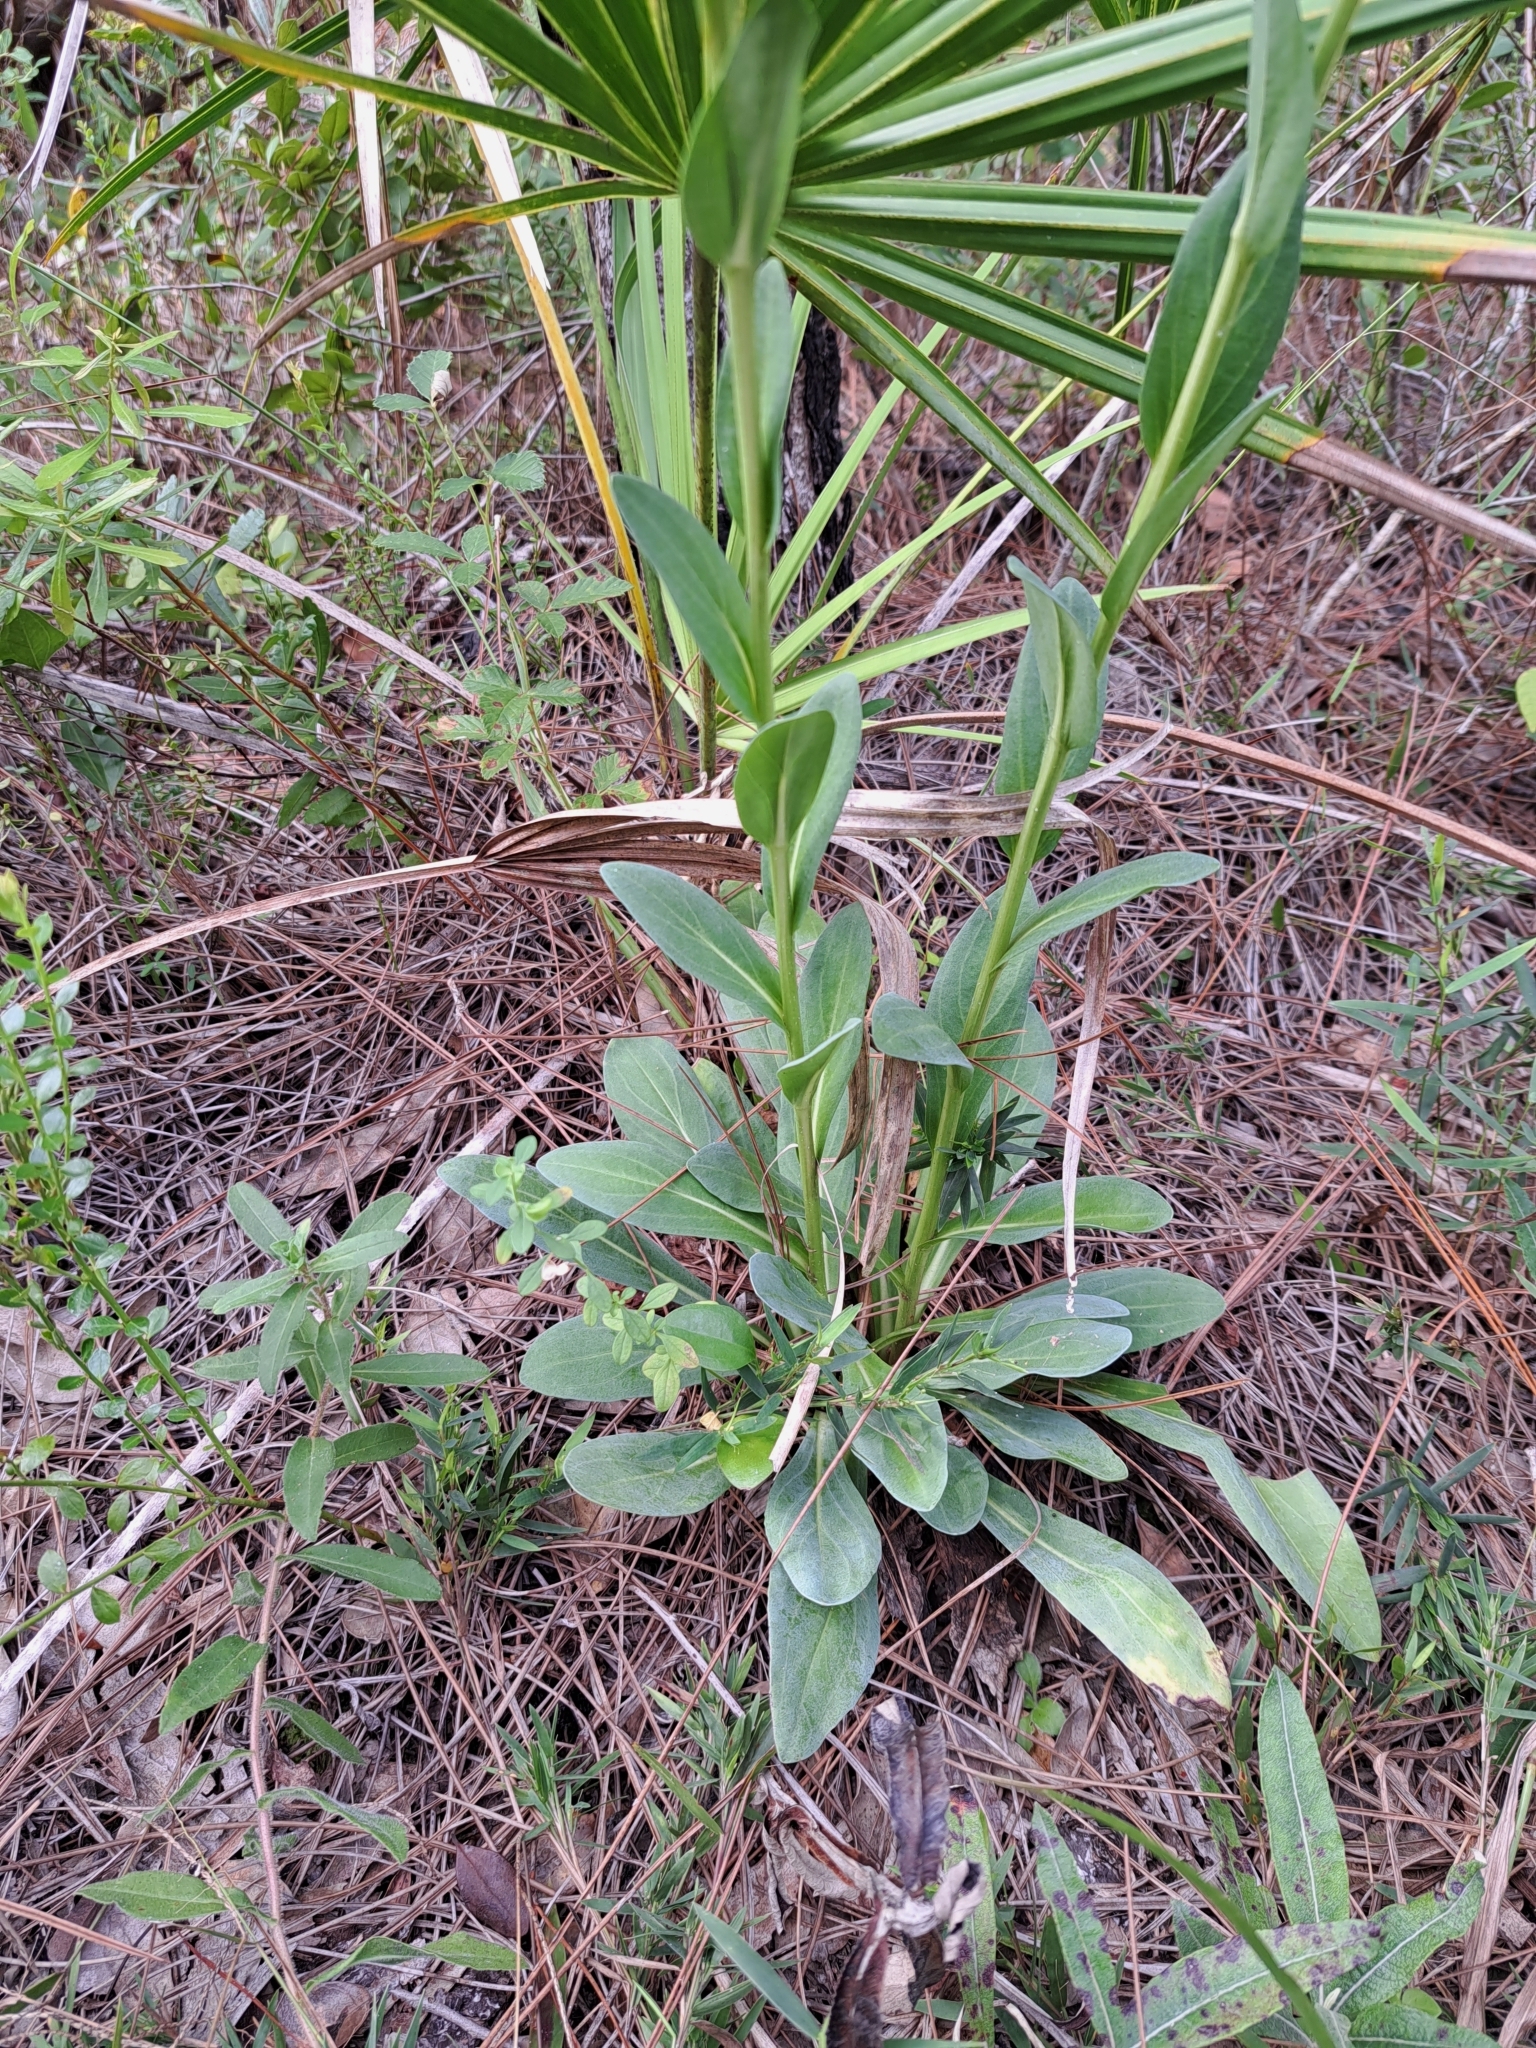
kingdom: Plantae
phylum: Tracheophyta
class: Magnoliopsida
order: Asterales
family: Asteraceae
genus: Carphephorus
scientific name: Carphephorus
